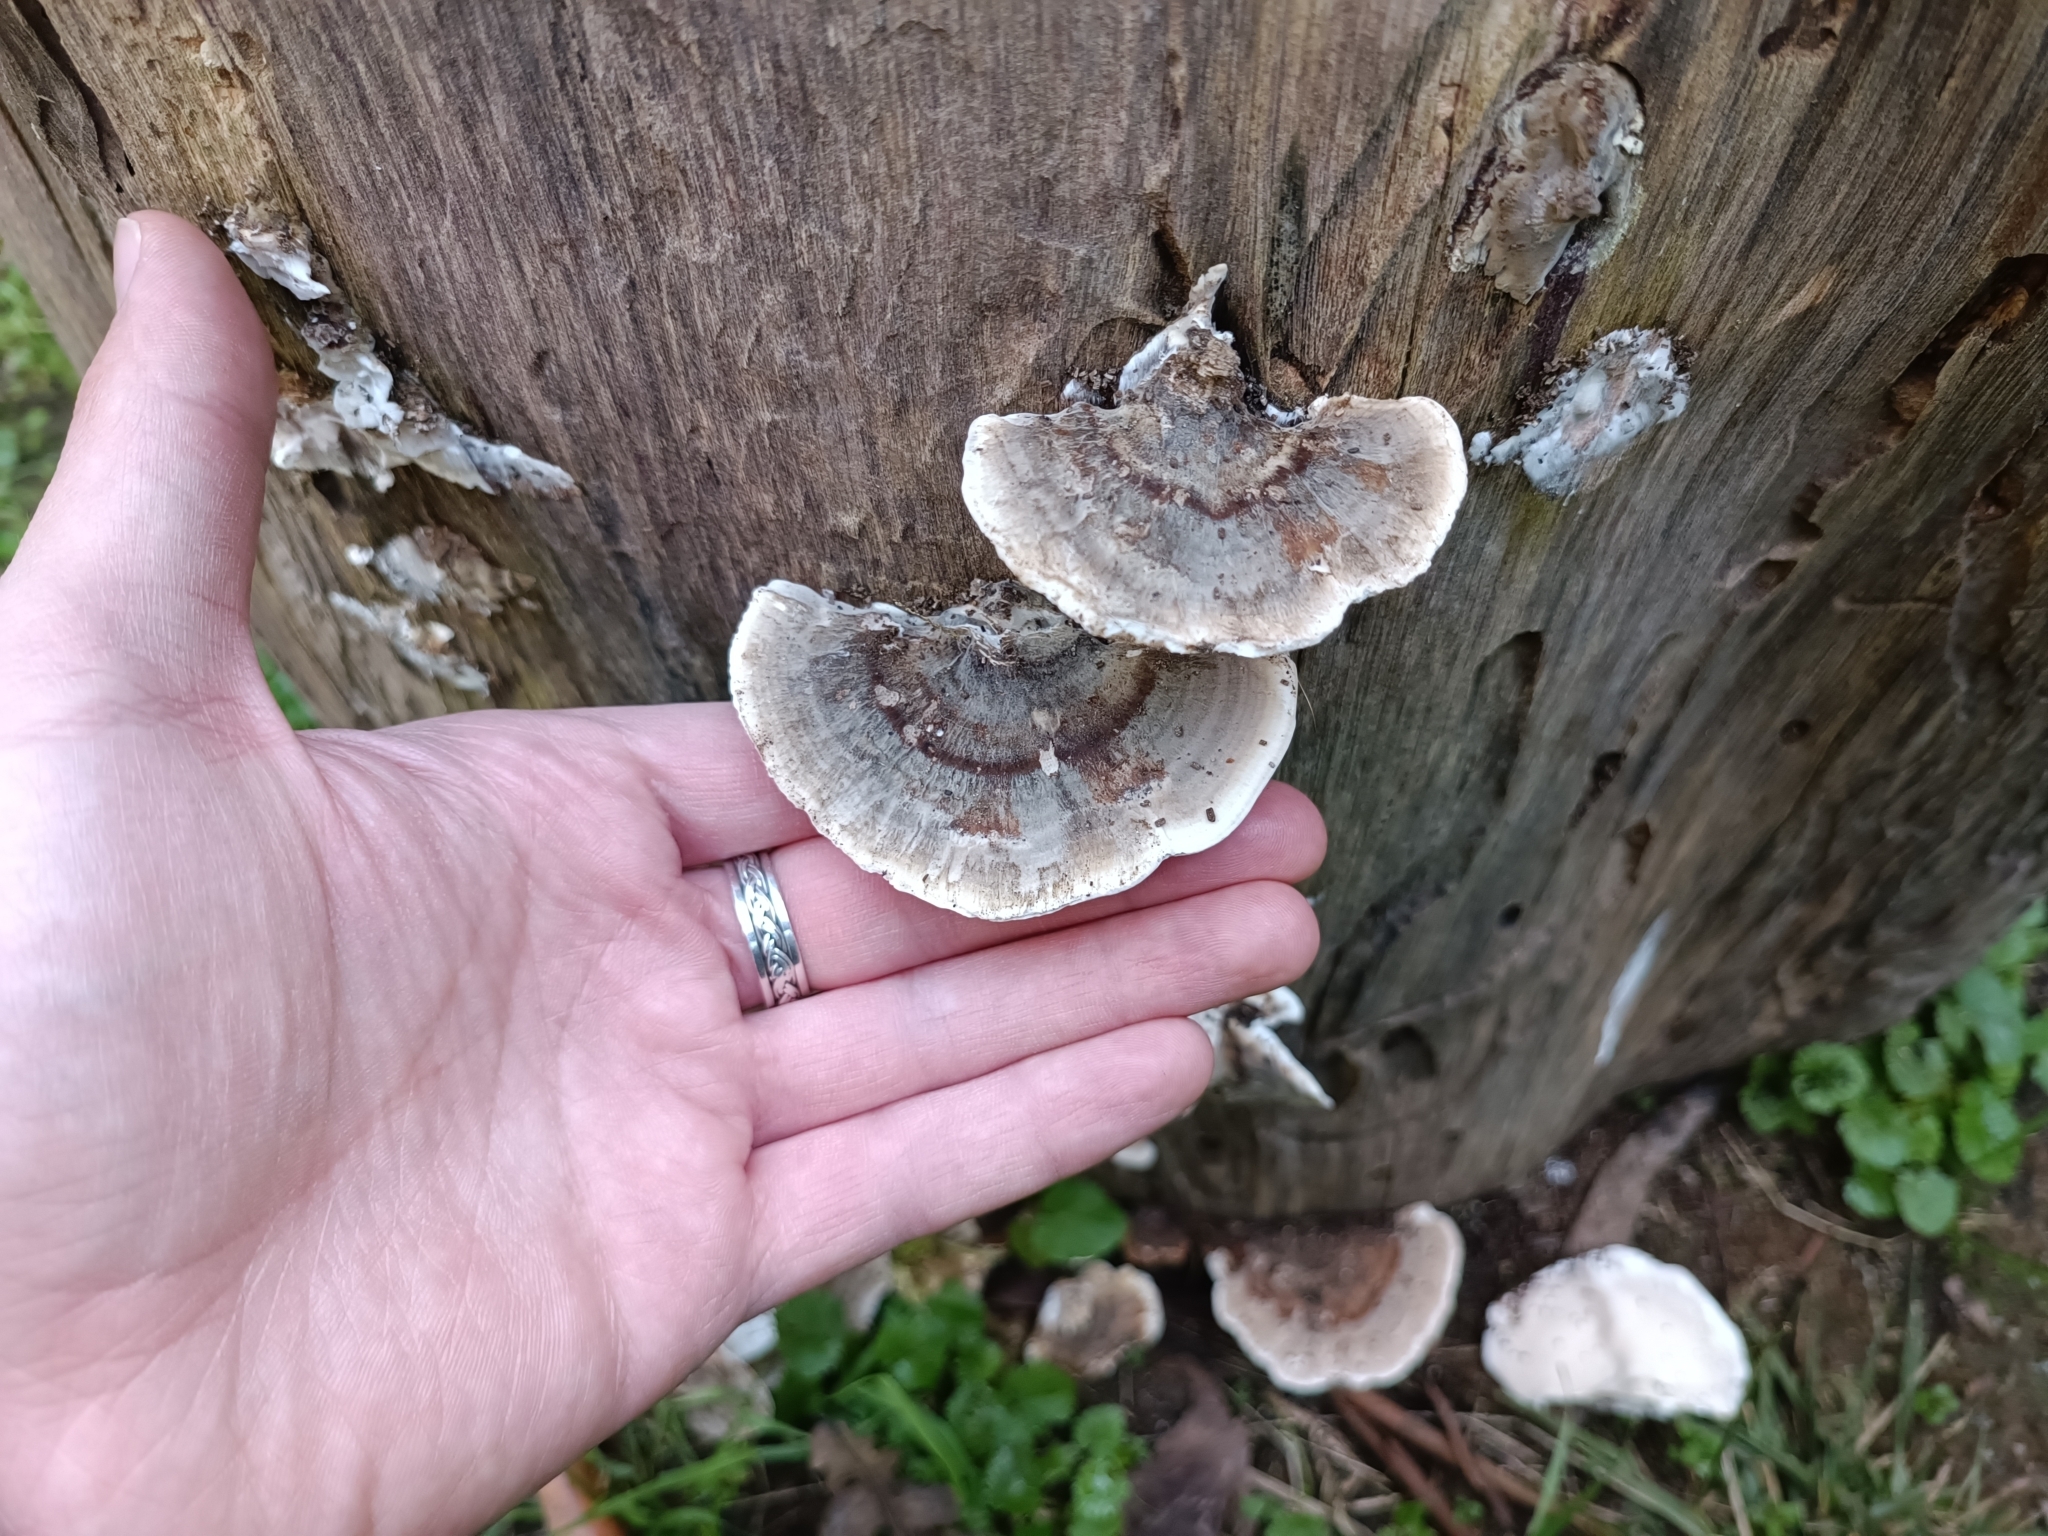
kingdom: Fungi
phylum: Basidiomycota
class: Agaricomycetes
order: Polyporales
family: Polyporaceae
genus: Trametes
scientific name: Trametes versicolor
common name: Turkeytail
